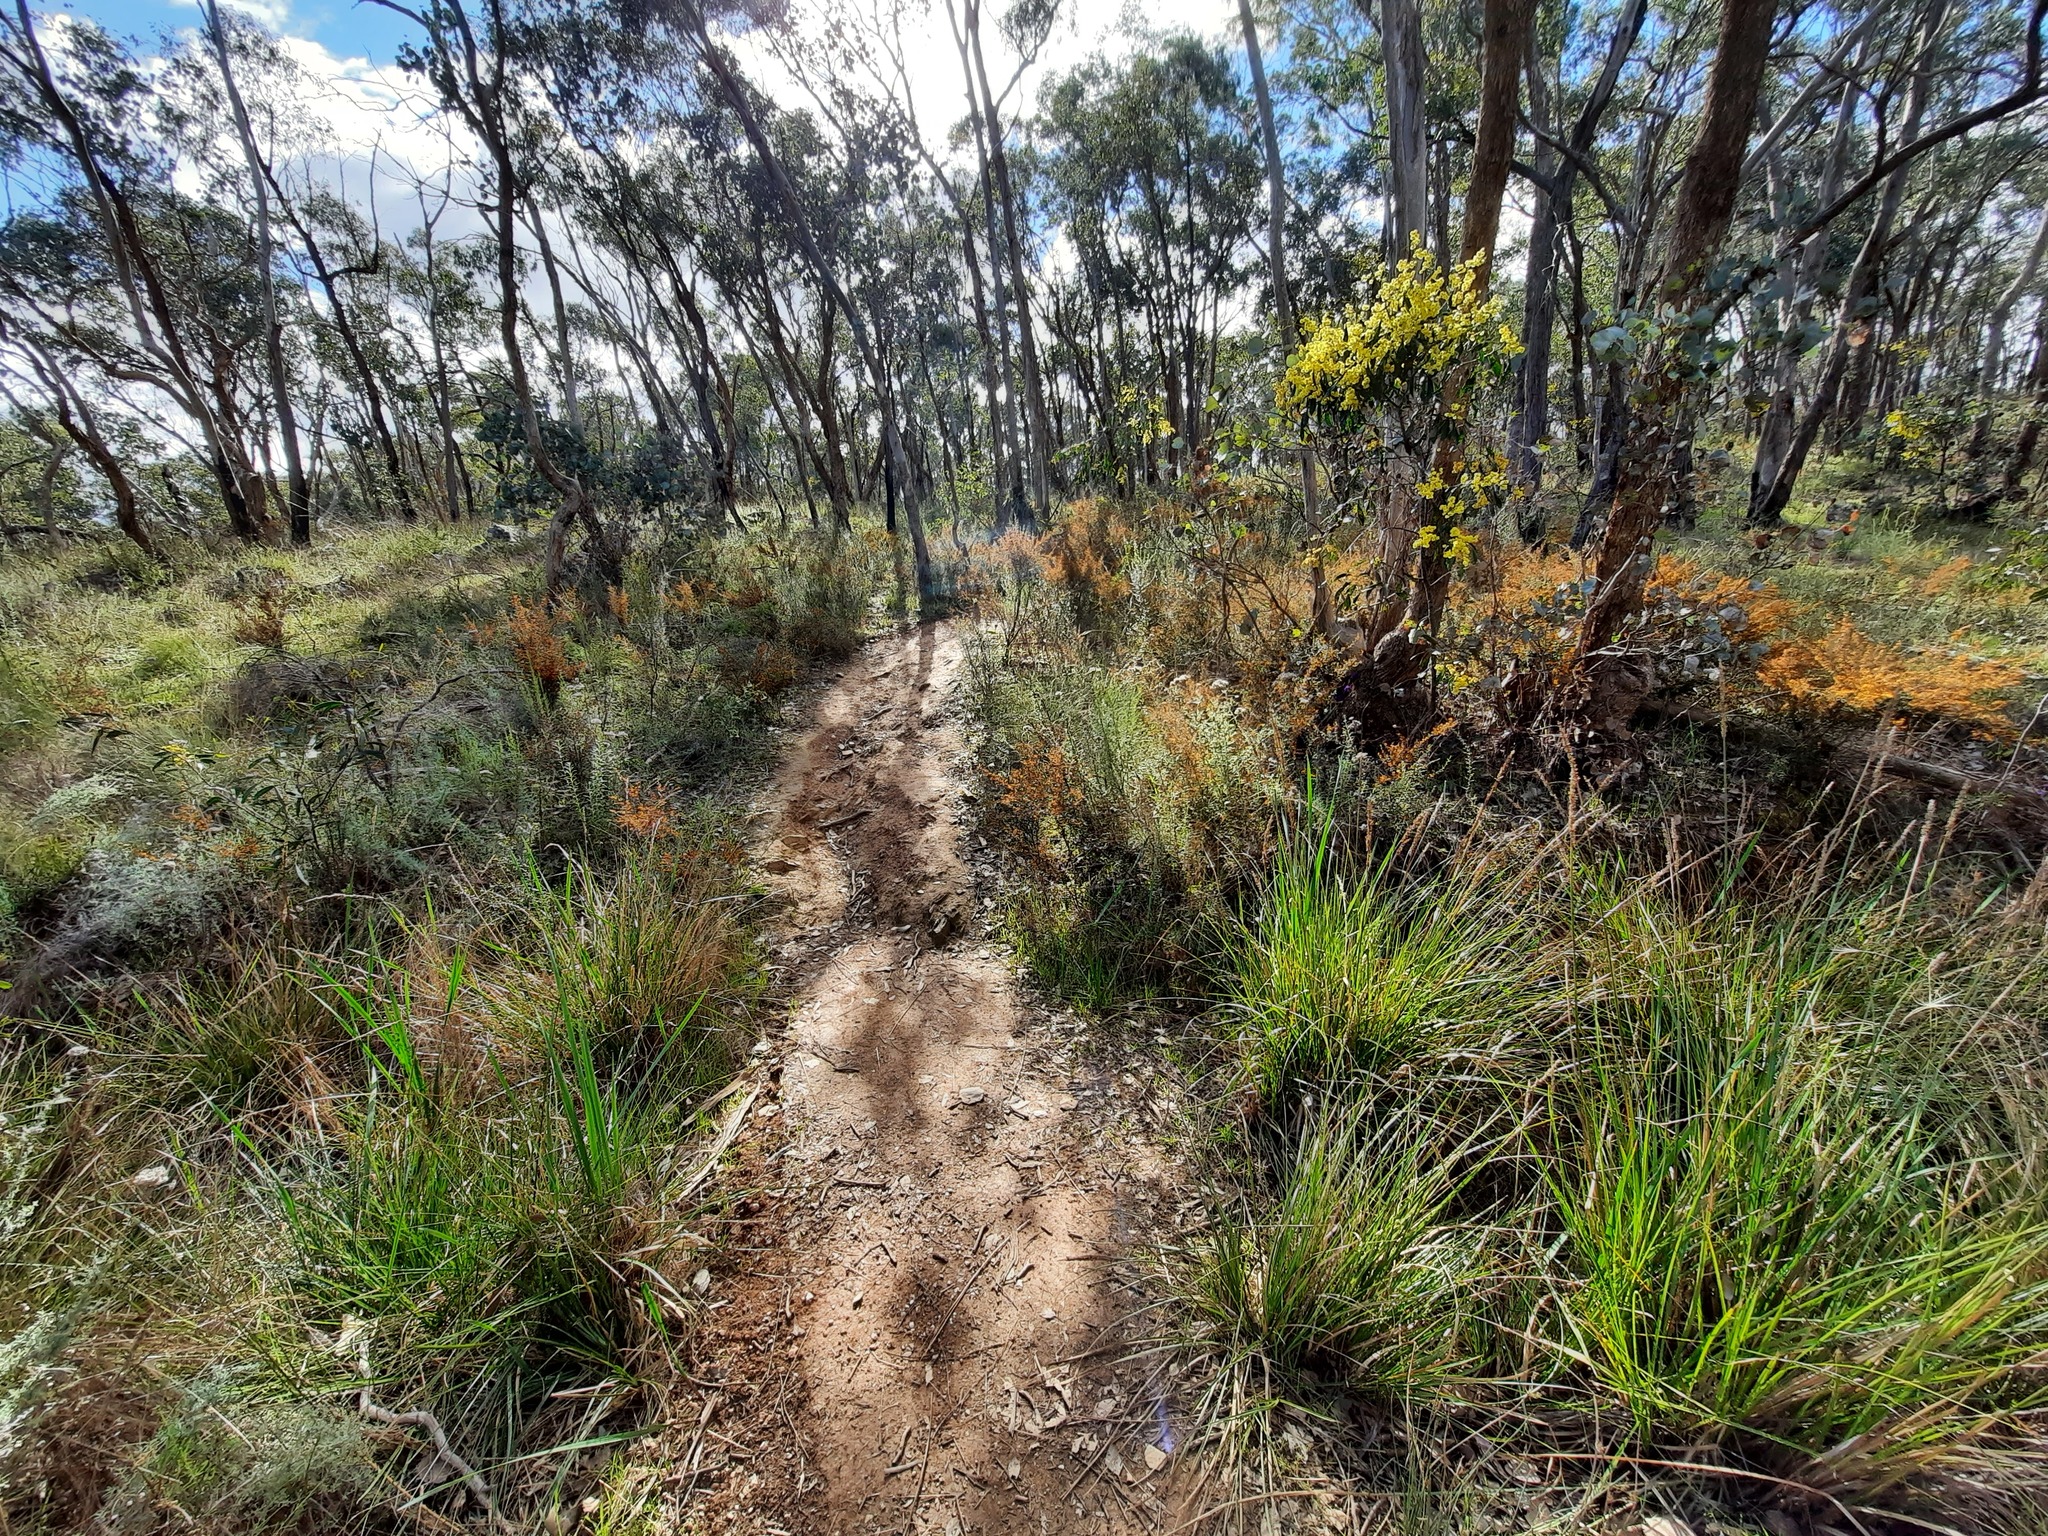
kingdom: Plantae
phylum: Tracheophyta
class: Magnoliopsida
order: Fabales
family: Fabaceae
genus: Daviesia
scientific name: Daviesia ulicifolia
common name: Gorse bitter-pea
